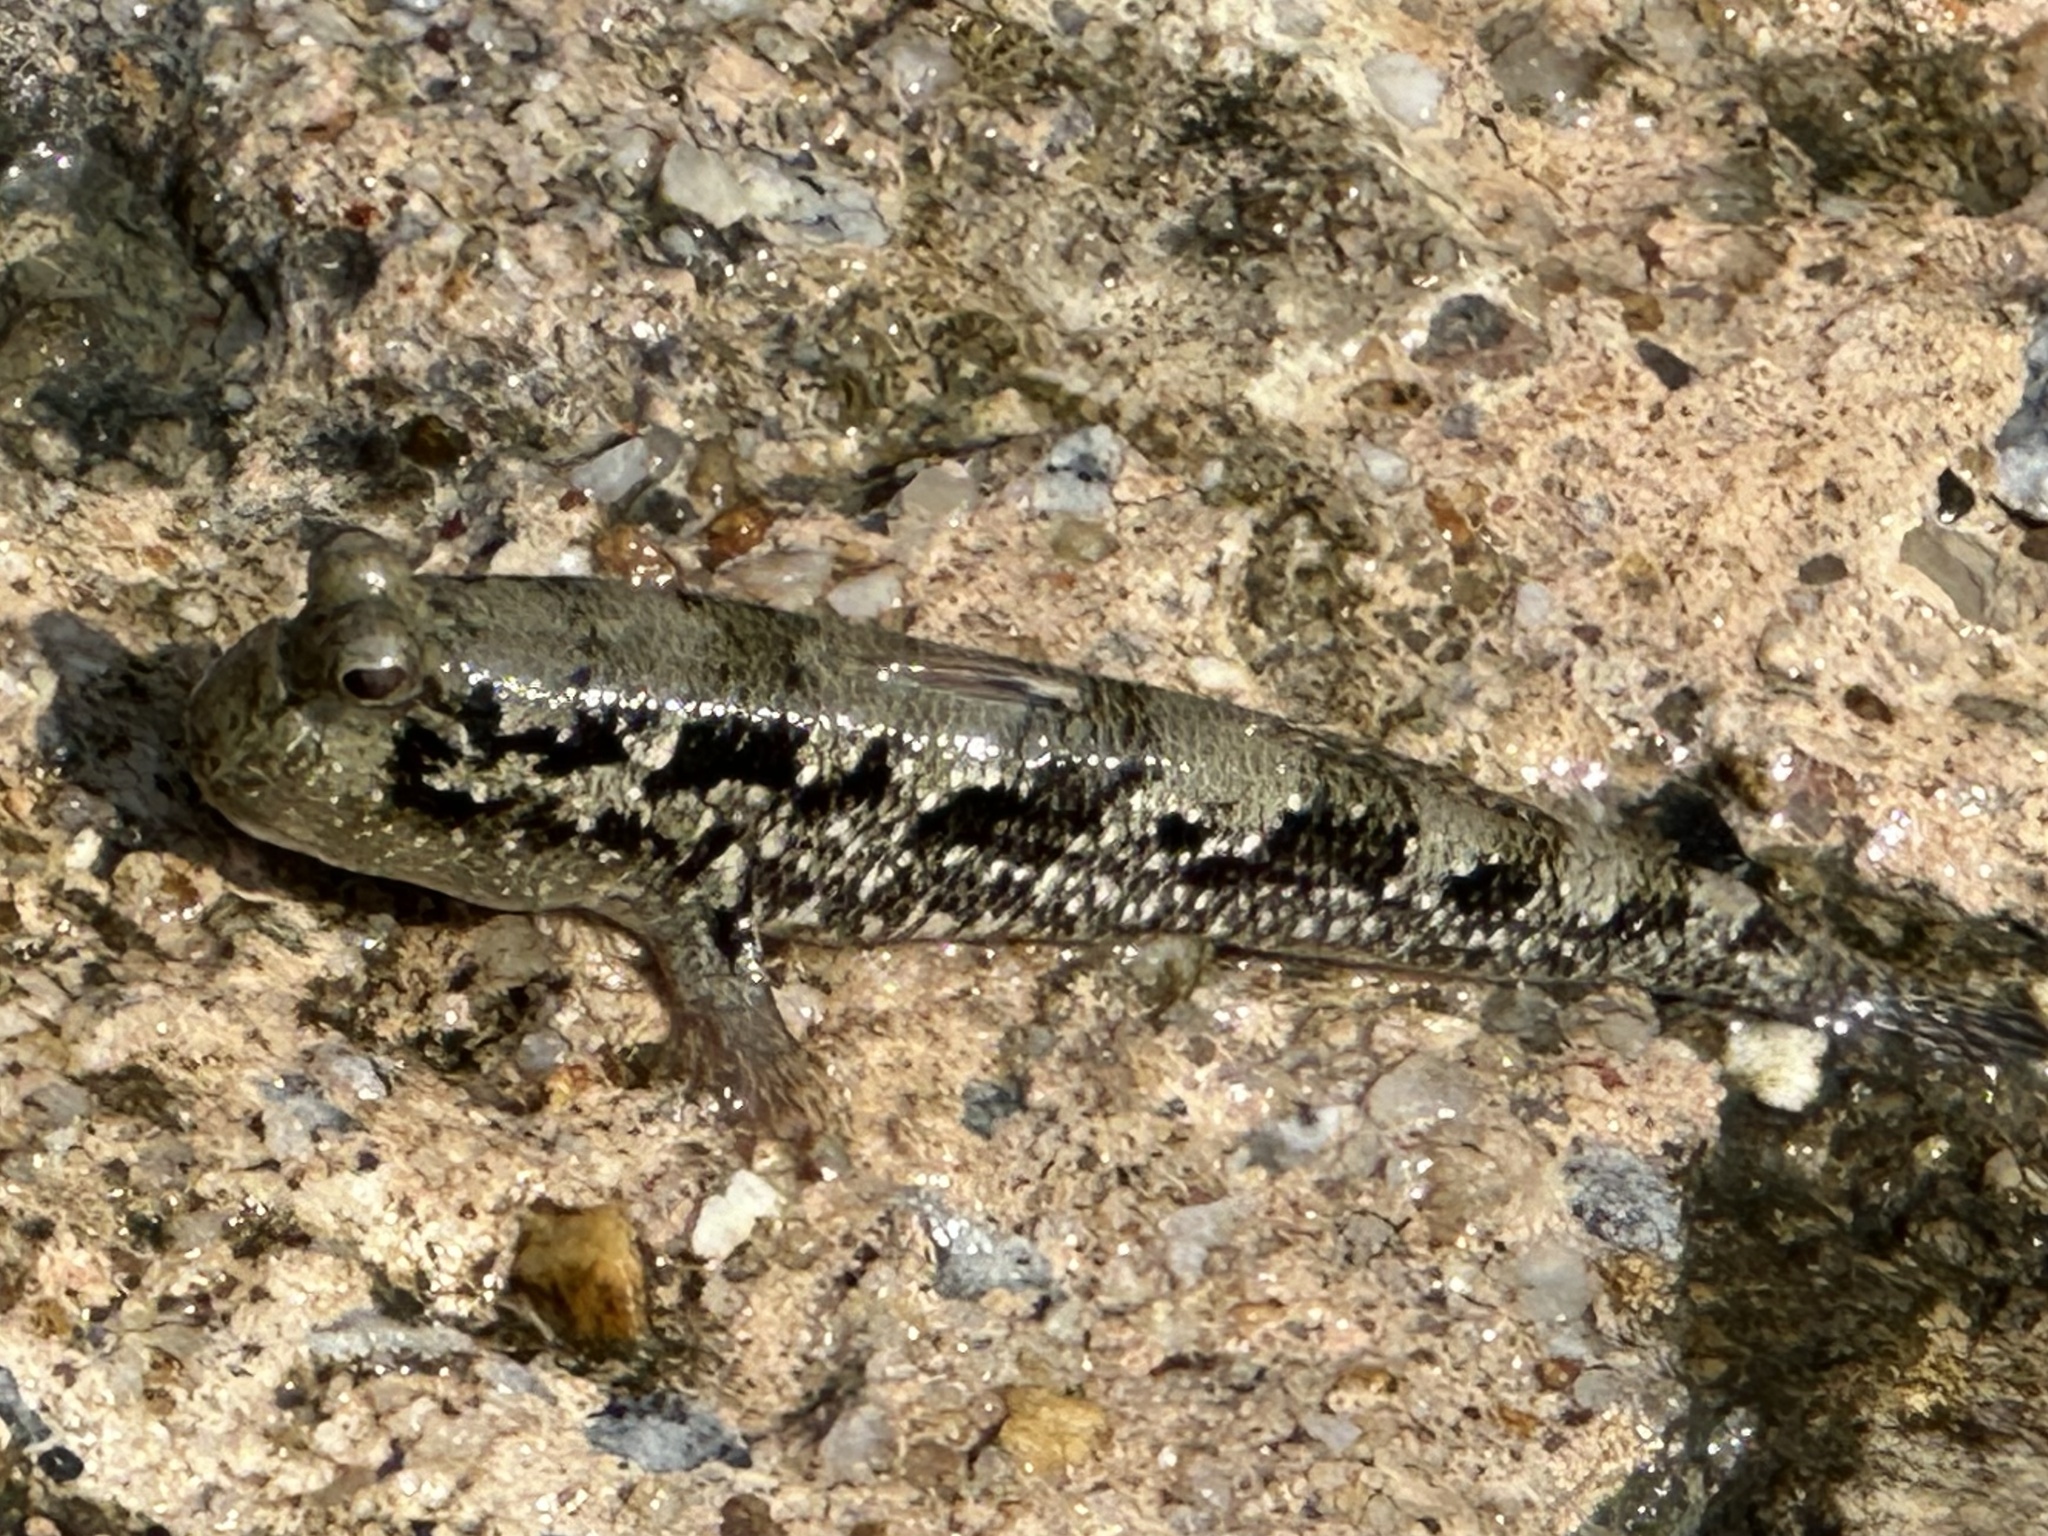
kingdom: Animalia
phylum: Chordata
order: Perciformes
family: Gobiidae
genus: Periophthalmus
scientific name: Periophthalmus walailakae
